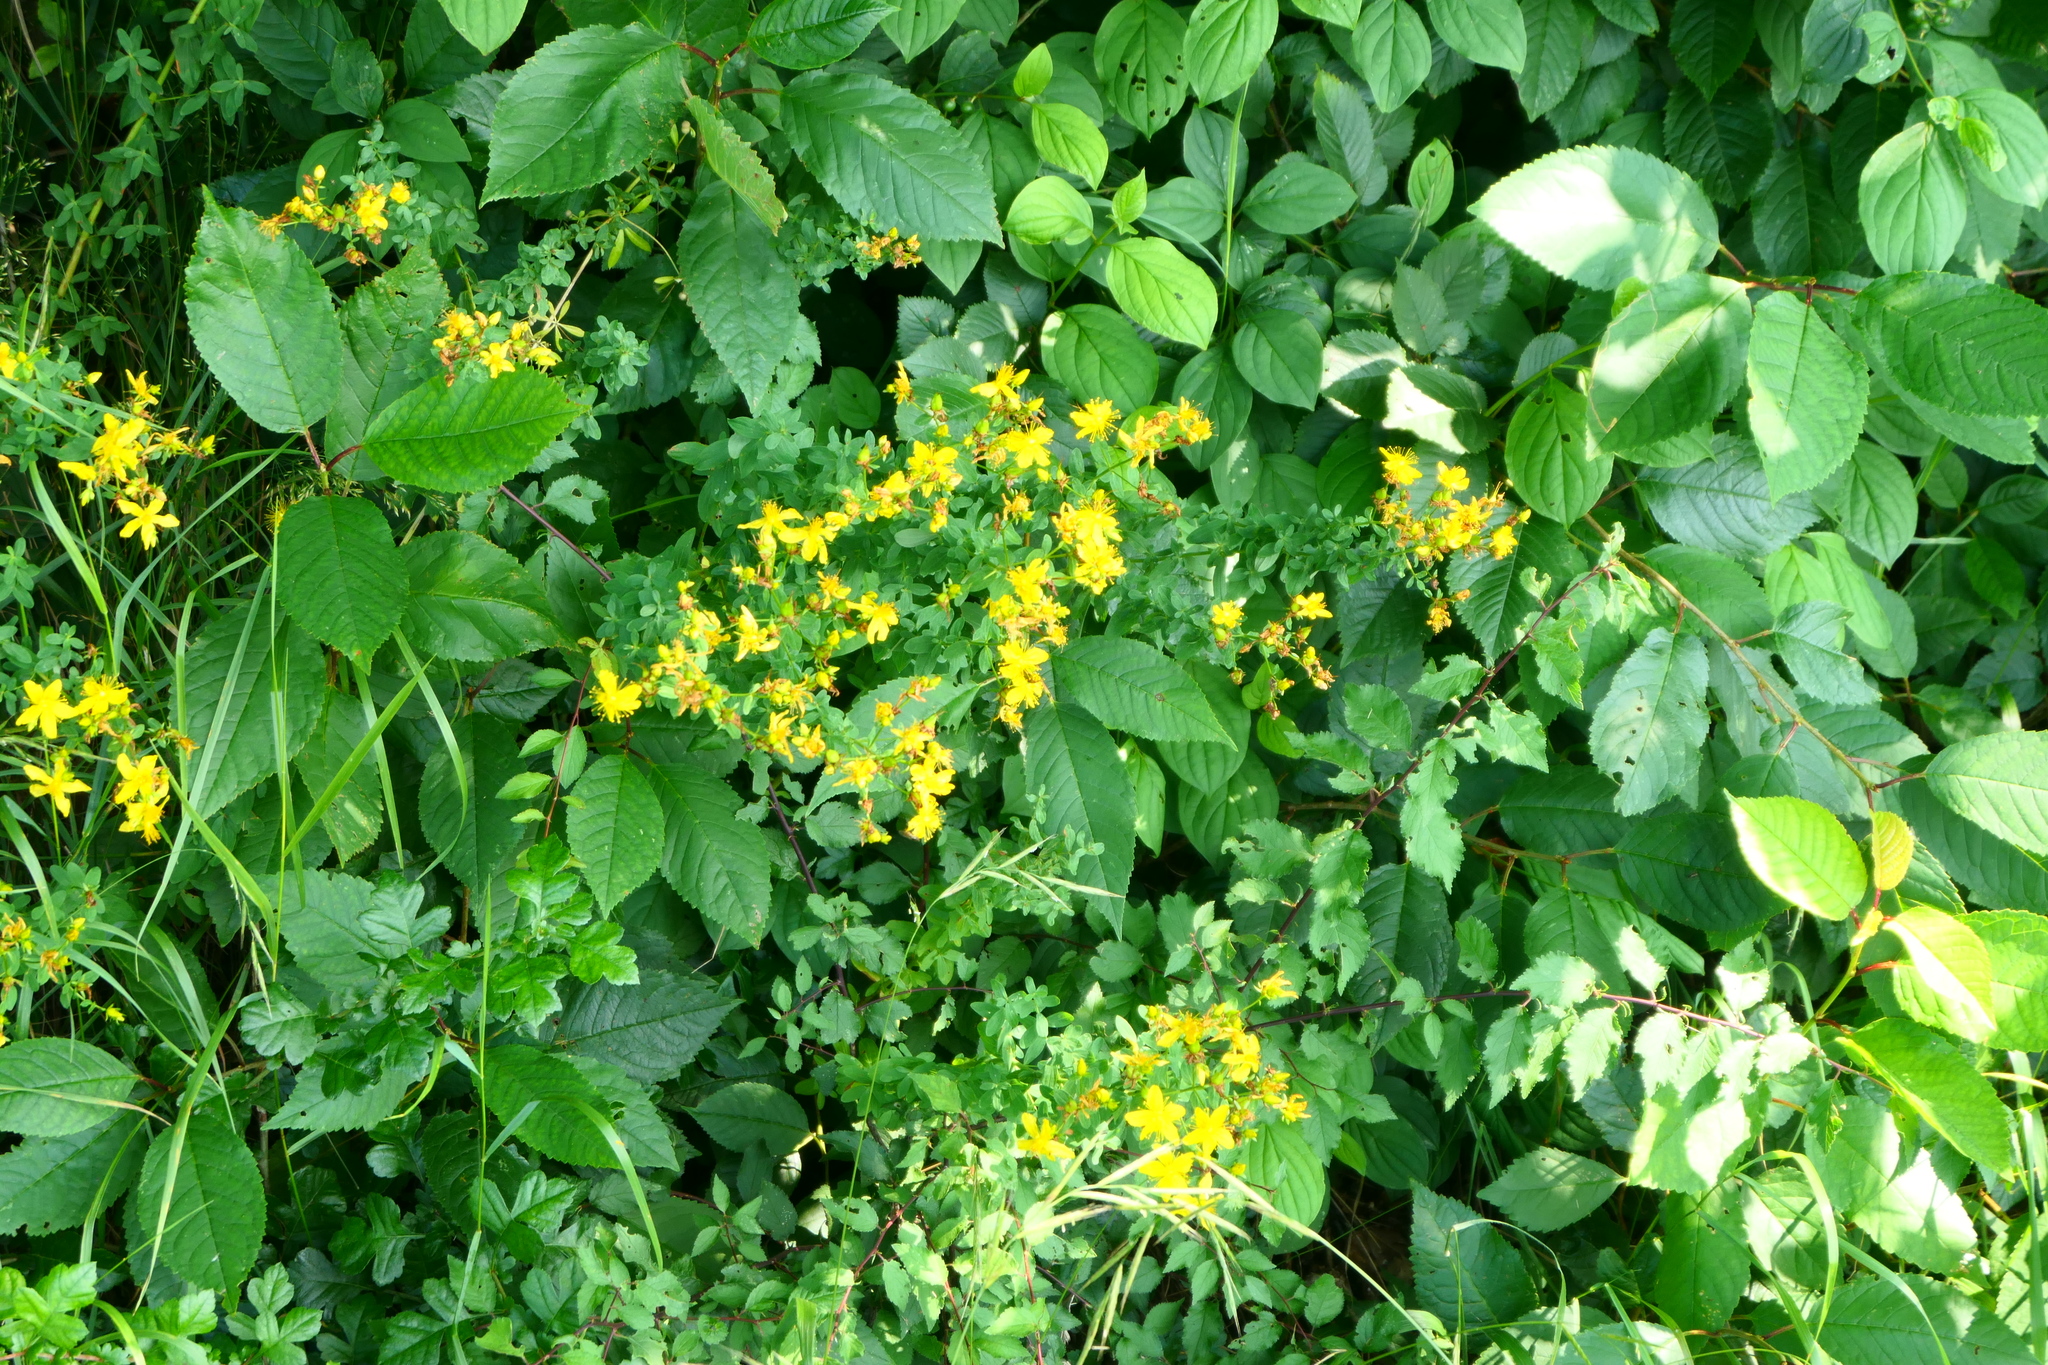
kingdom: Plantae
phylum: Tracheophyta
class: Magnoliopsida
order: Malpighiales
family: Hypericaceae
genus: Hypericum
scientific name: Hypericum perforatum
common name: Common st. johnswort
